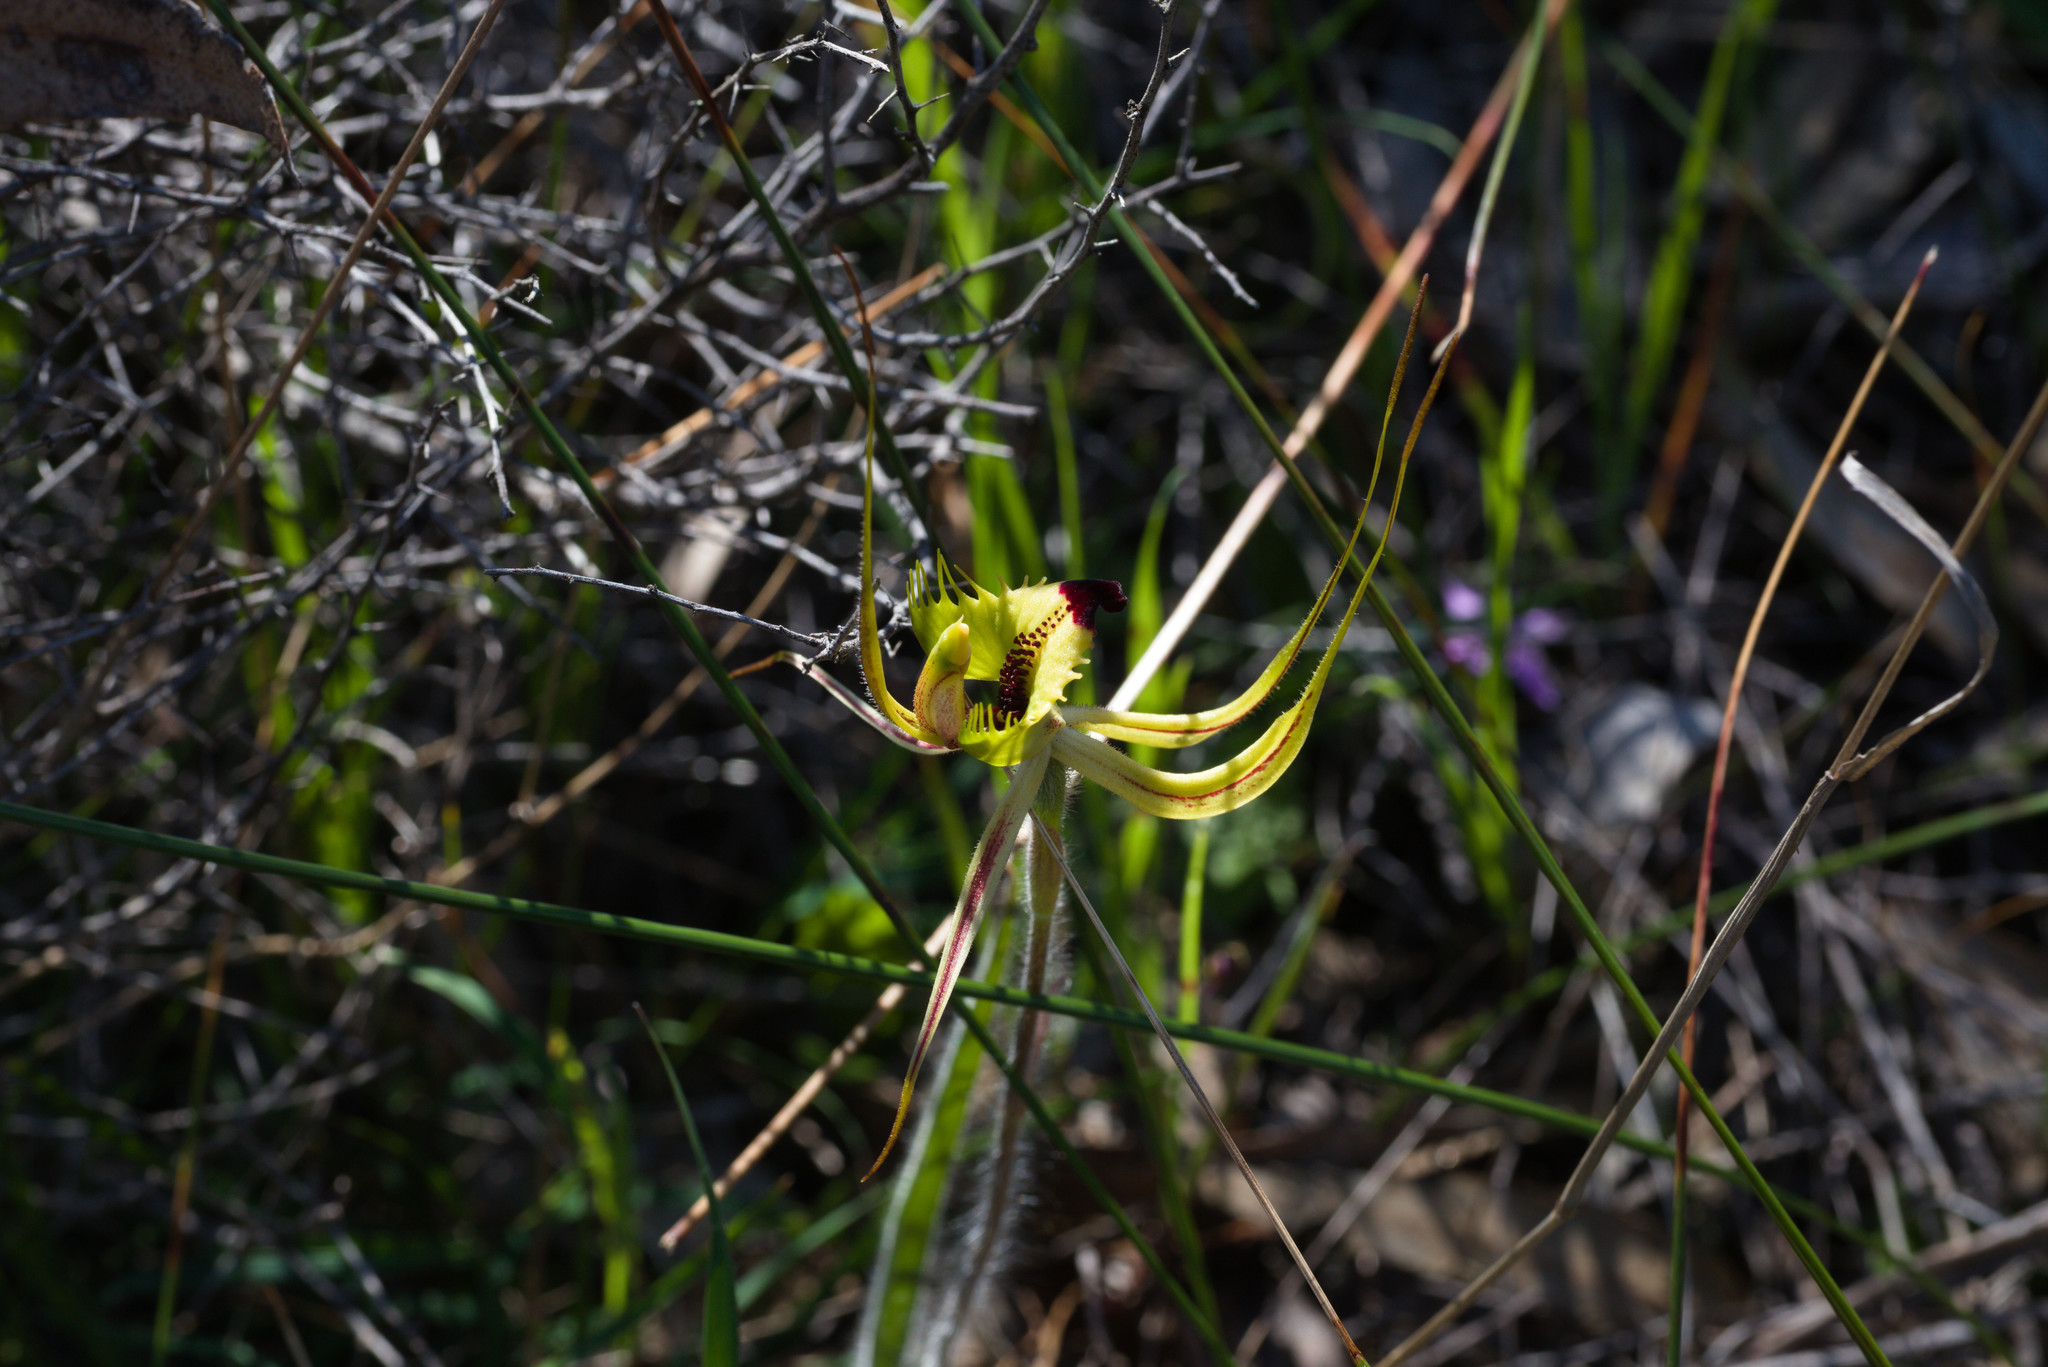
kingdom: Plantae
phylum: Tracheophyta
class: Liliopsida
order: Asparagales
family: Orchidaceae
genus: Caladenia
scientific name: Caladenia falcata
